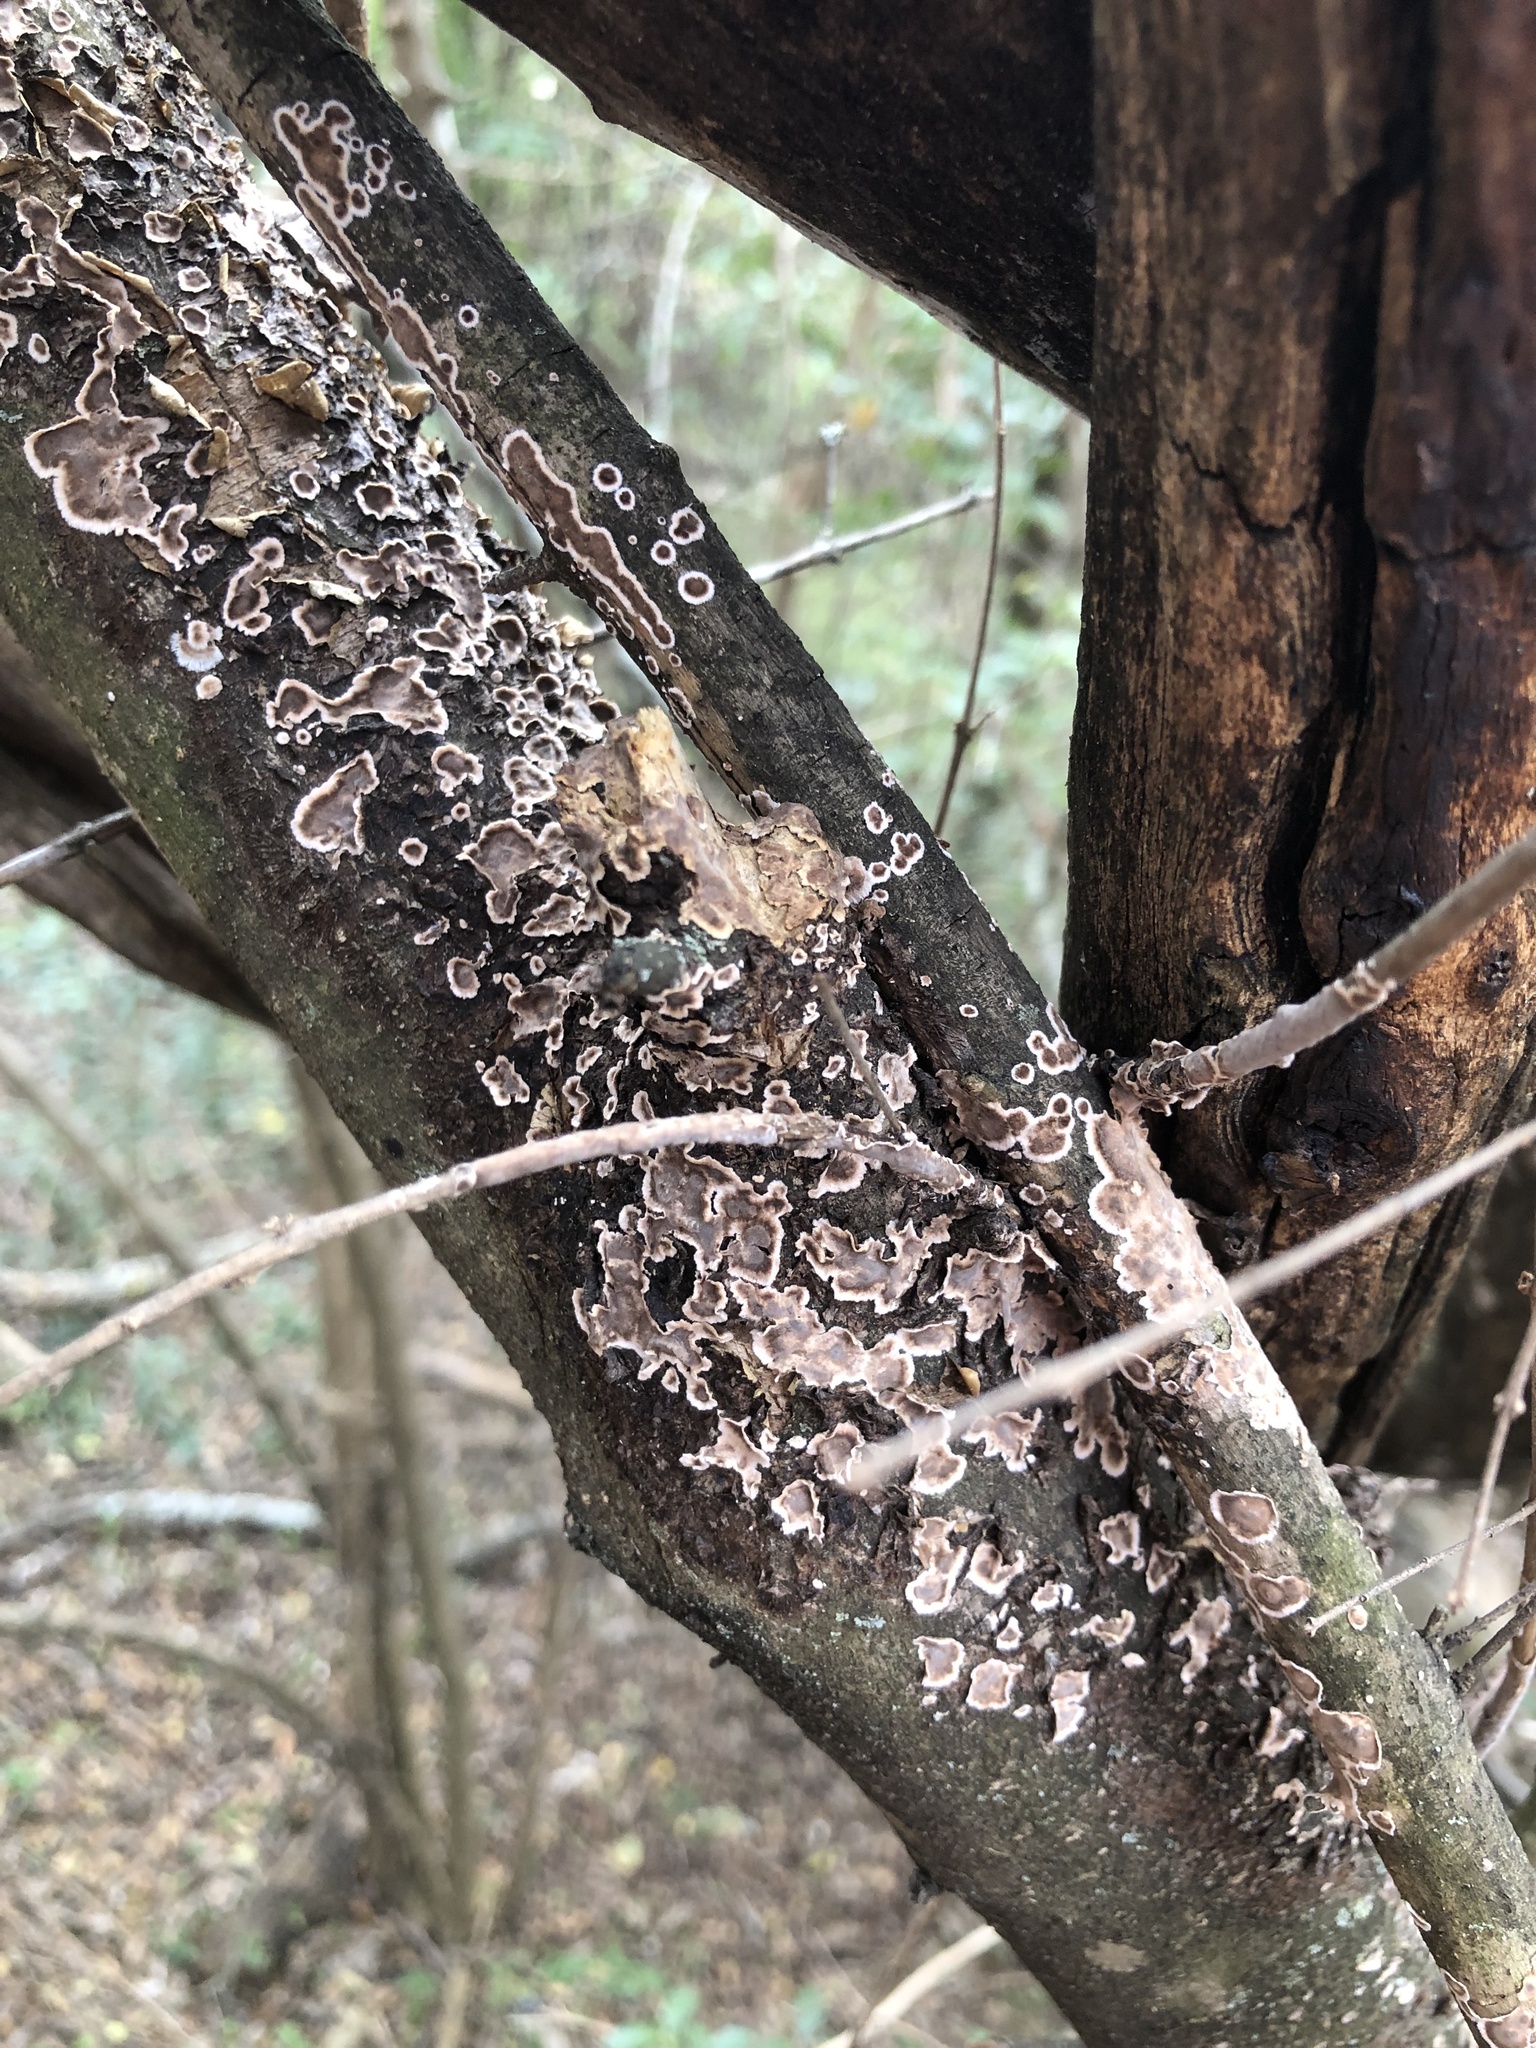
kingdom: Fungi
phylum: Basidiomycota
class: Agaricomycetes
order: Russulales
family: Peniophoraceae
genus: Peniophora
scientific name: Peniophora albobadia
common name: Giraffe spots
